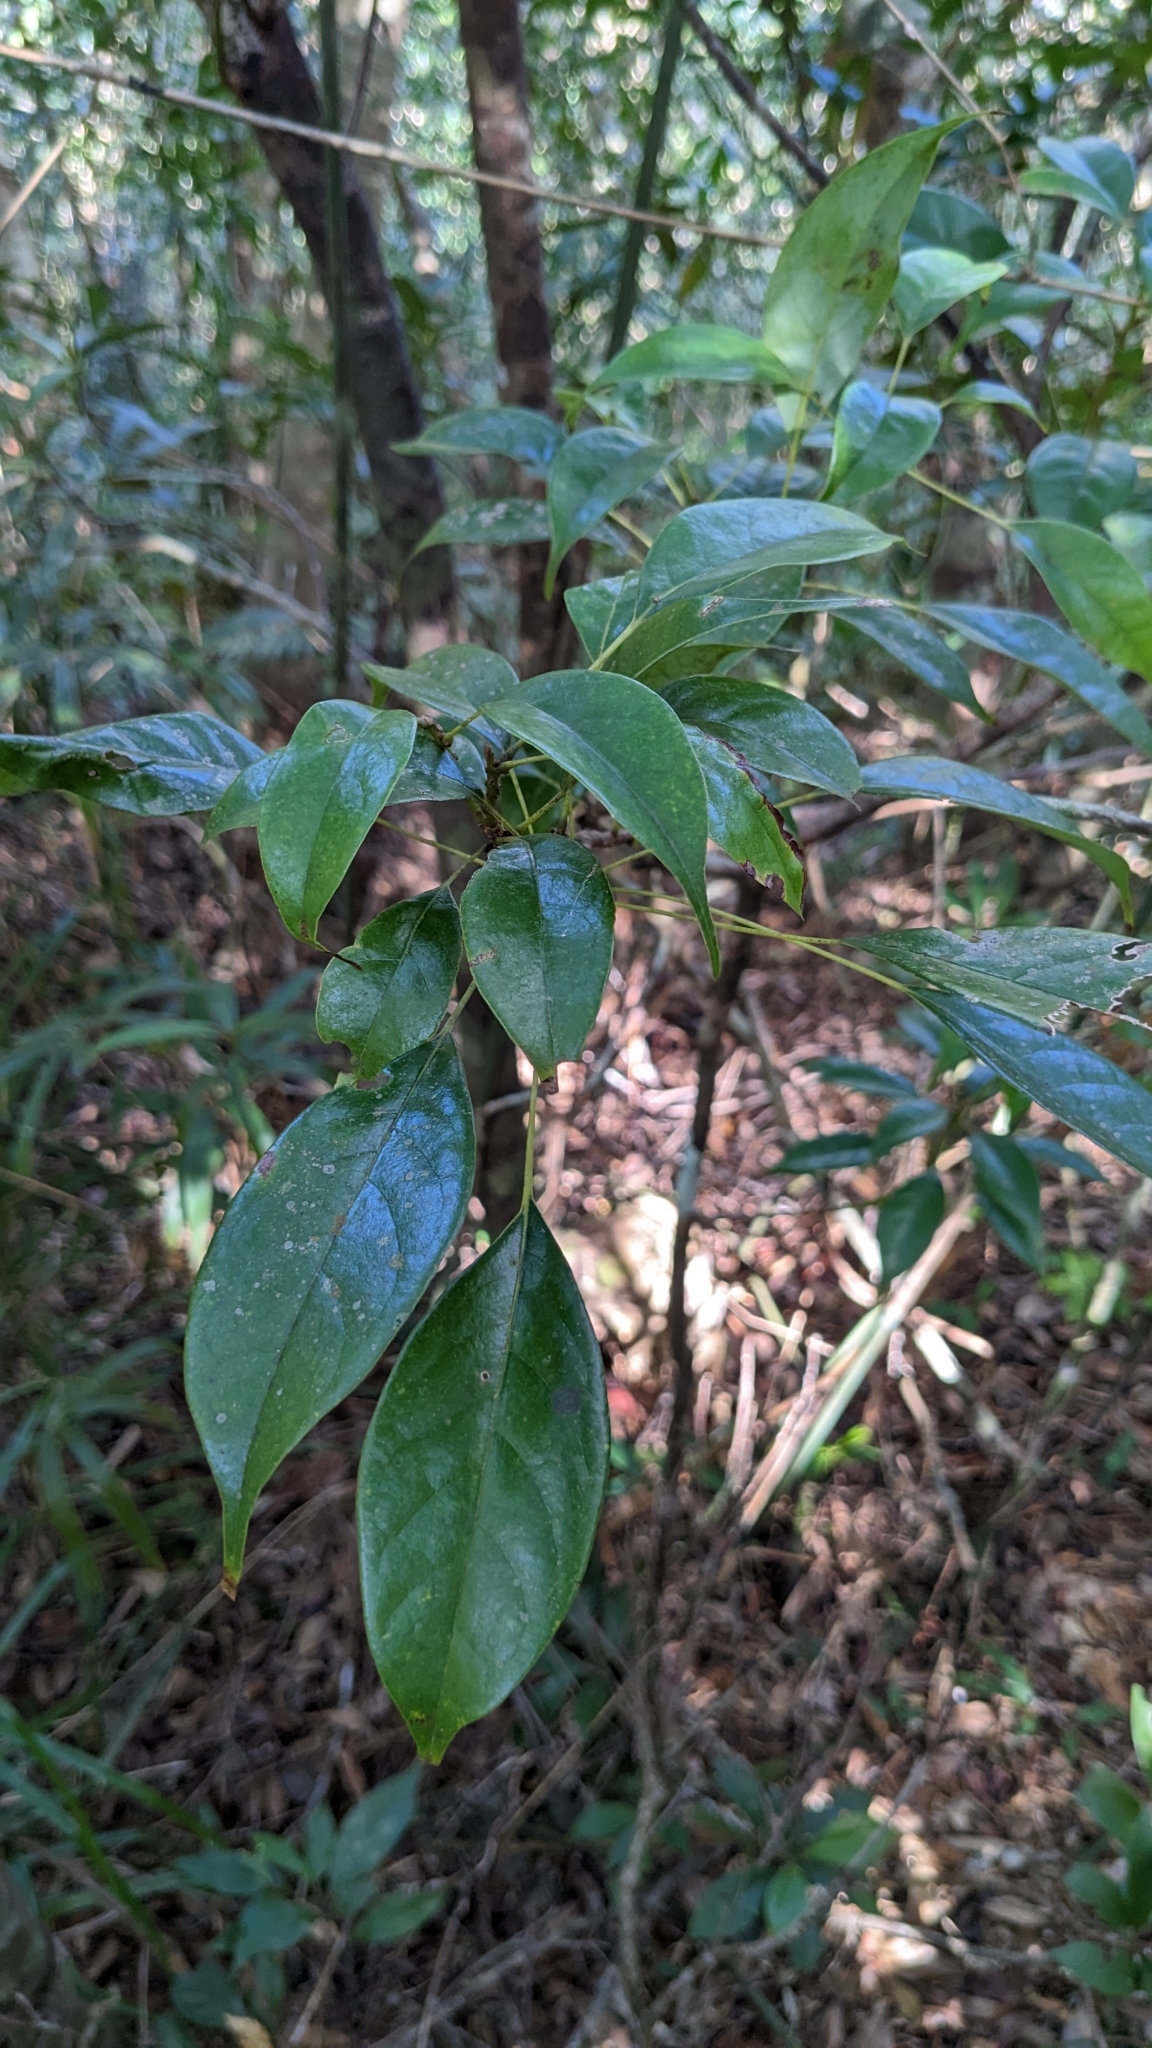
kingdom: Plantae
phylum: Tracheophyta
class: Magnoliopsida
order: Proteales
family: Sabiaceae
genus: Meliosma
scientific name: Meliosma squamulata
